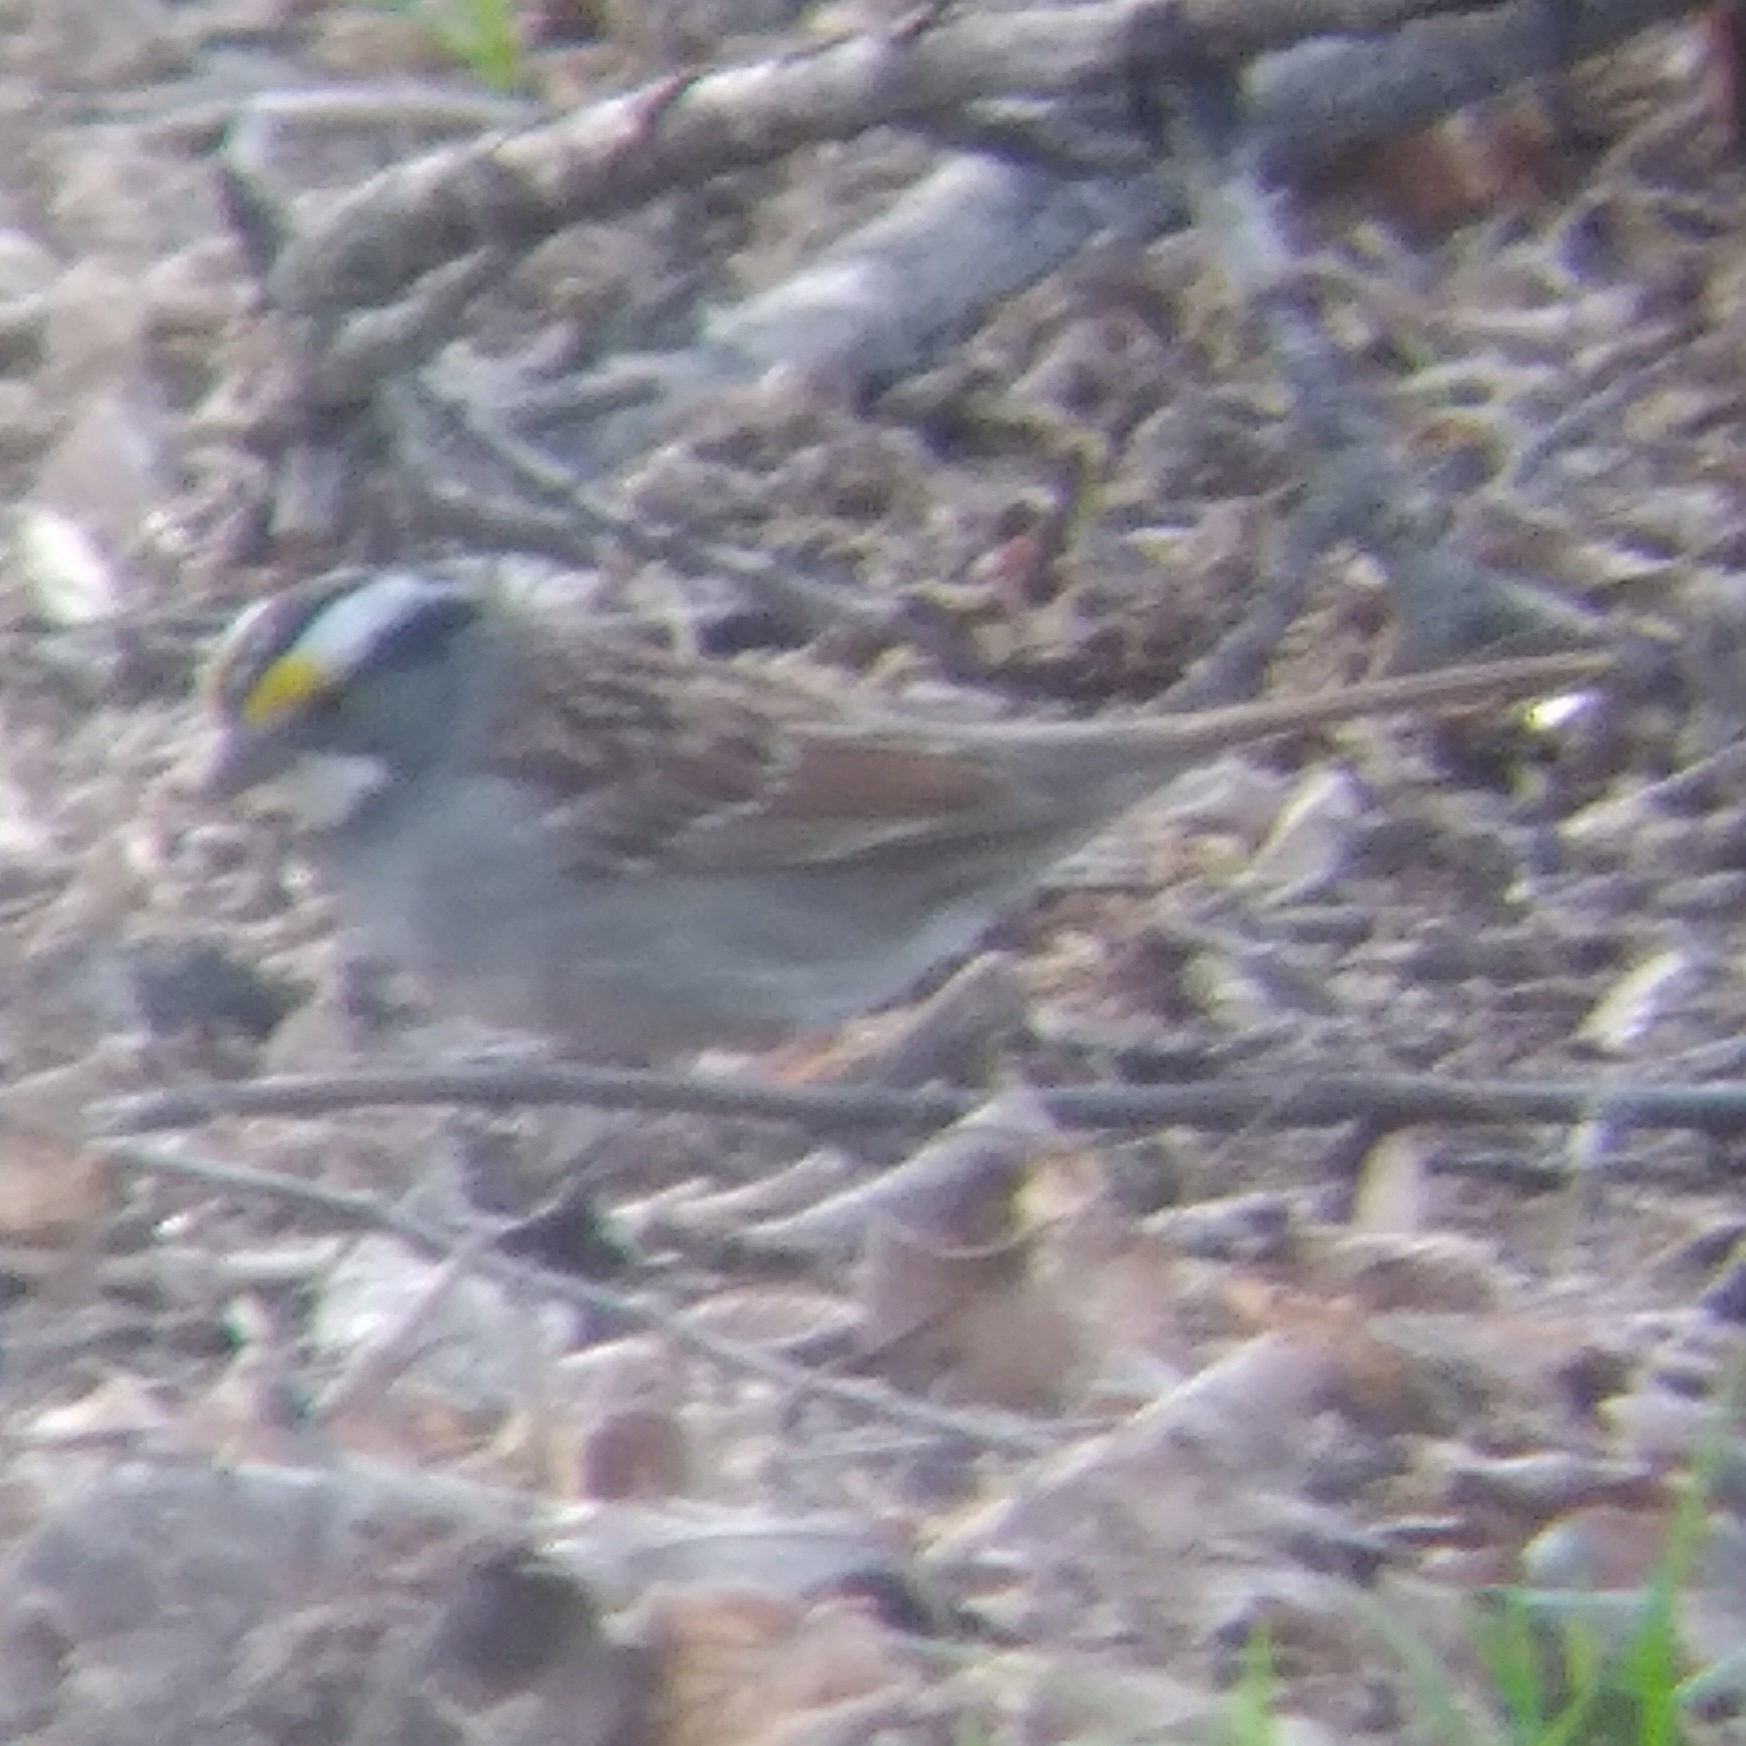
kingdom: Animalia
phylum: Chordata
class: Aves
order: Passeriformes
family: Passerellidae
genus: Zonotrichia
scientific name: Zonotrichia albicollis
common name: White-throated sparrow
